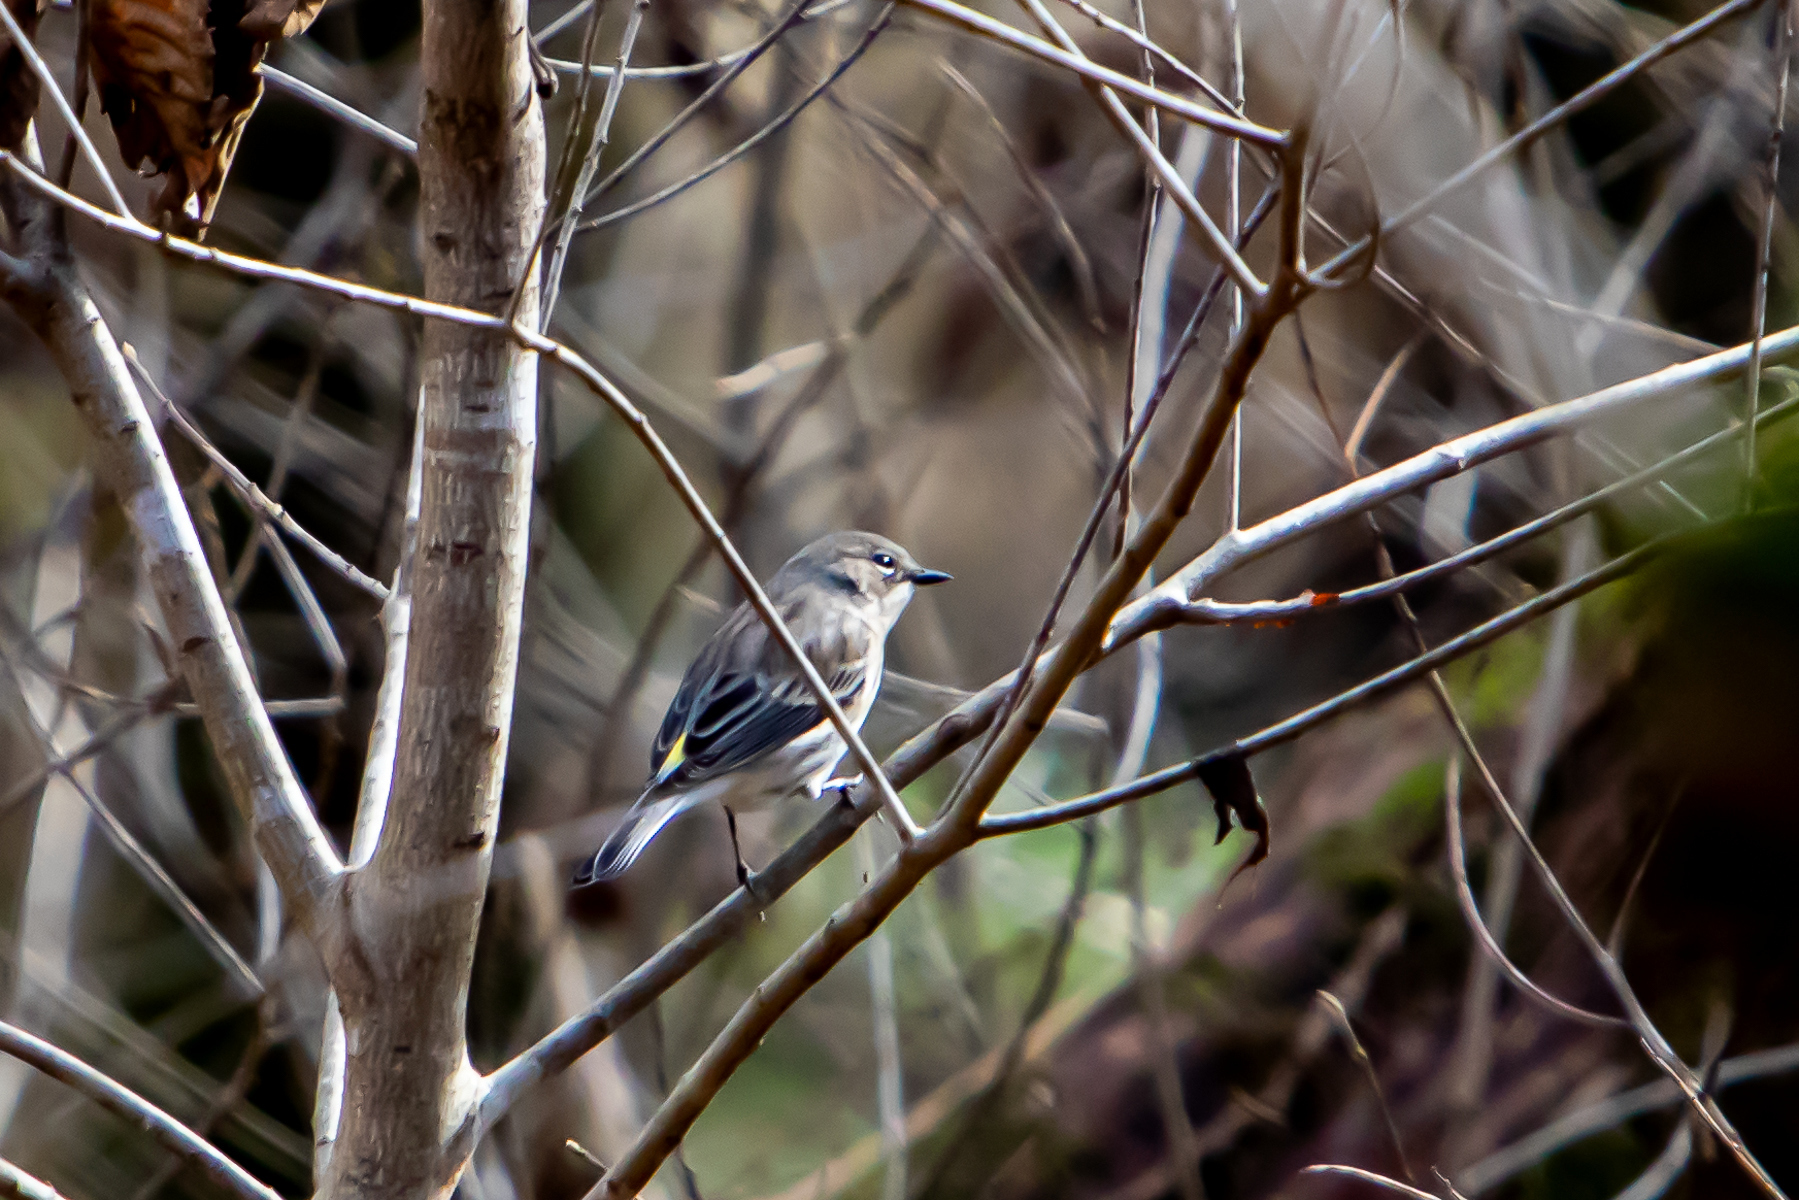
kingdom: Animalia
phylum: Chordata
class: Aves
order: Passeriformes
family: Parulidae
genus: Setophaga
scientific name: Setophaga coronata
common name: Myrtle warbler
